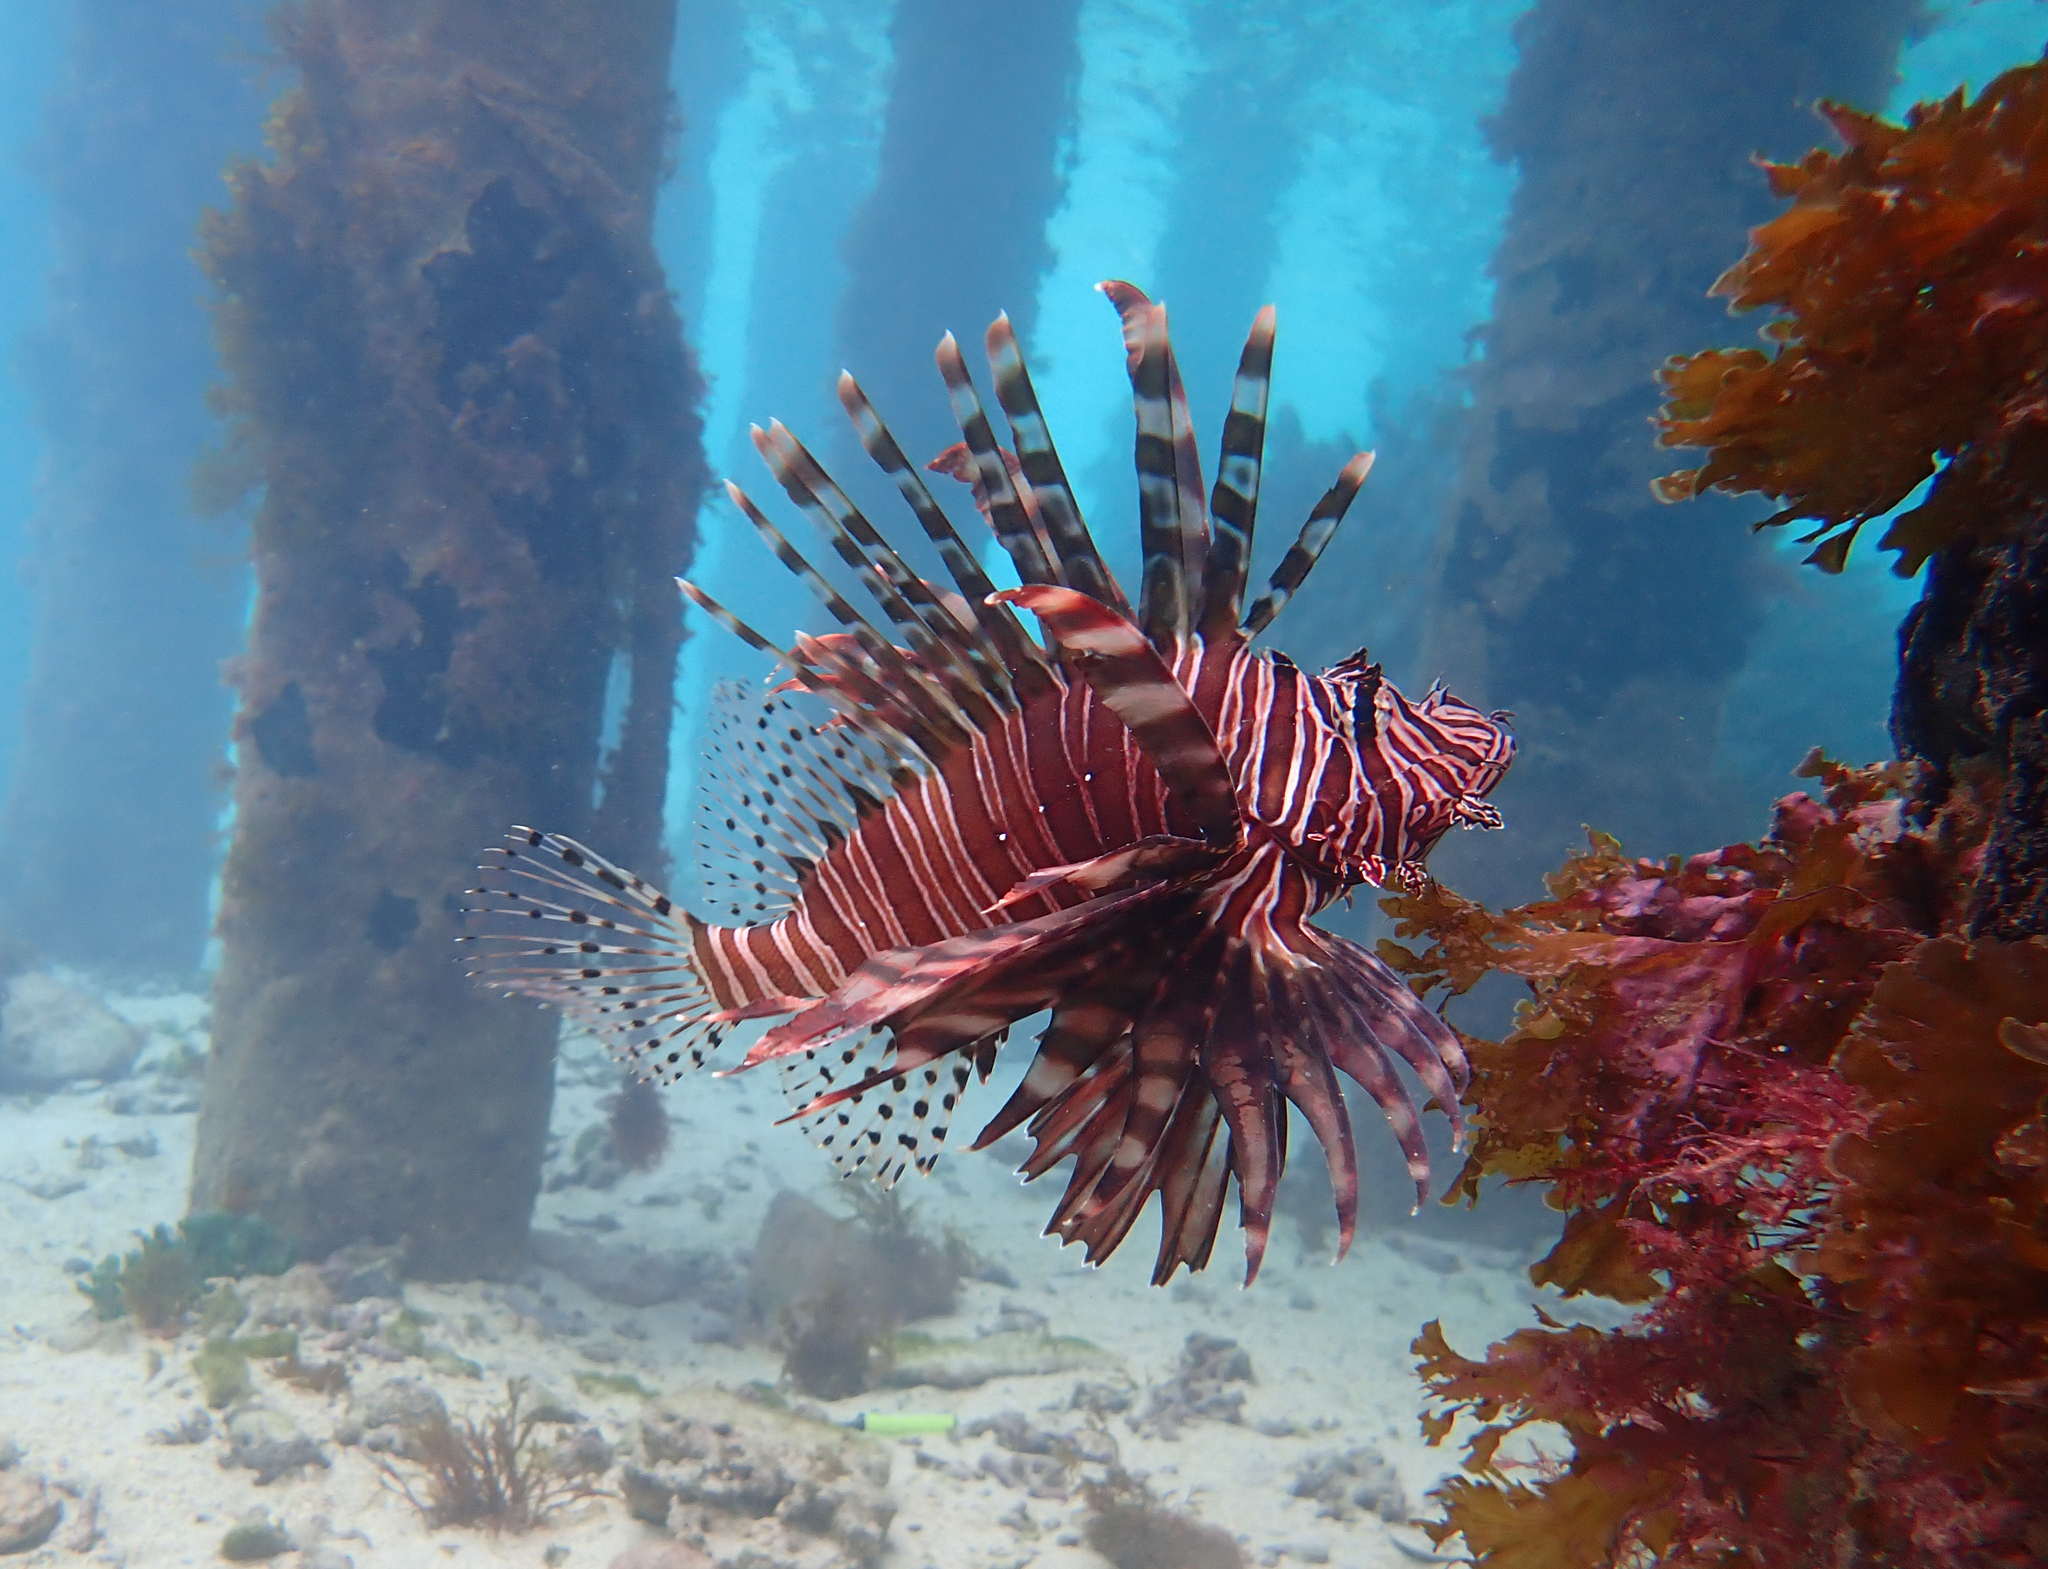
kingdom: Animalia
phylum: Chordata
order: Scorpaeniformes
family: Scorpaenidae
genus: Pterois
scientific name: Pterois volitans
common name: Lionfish
